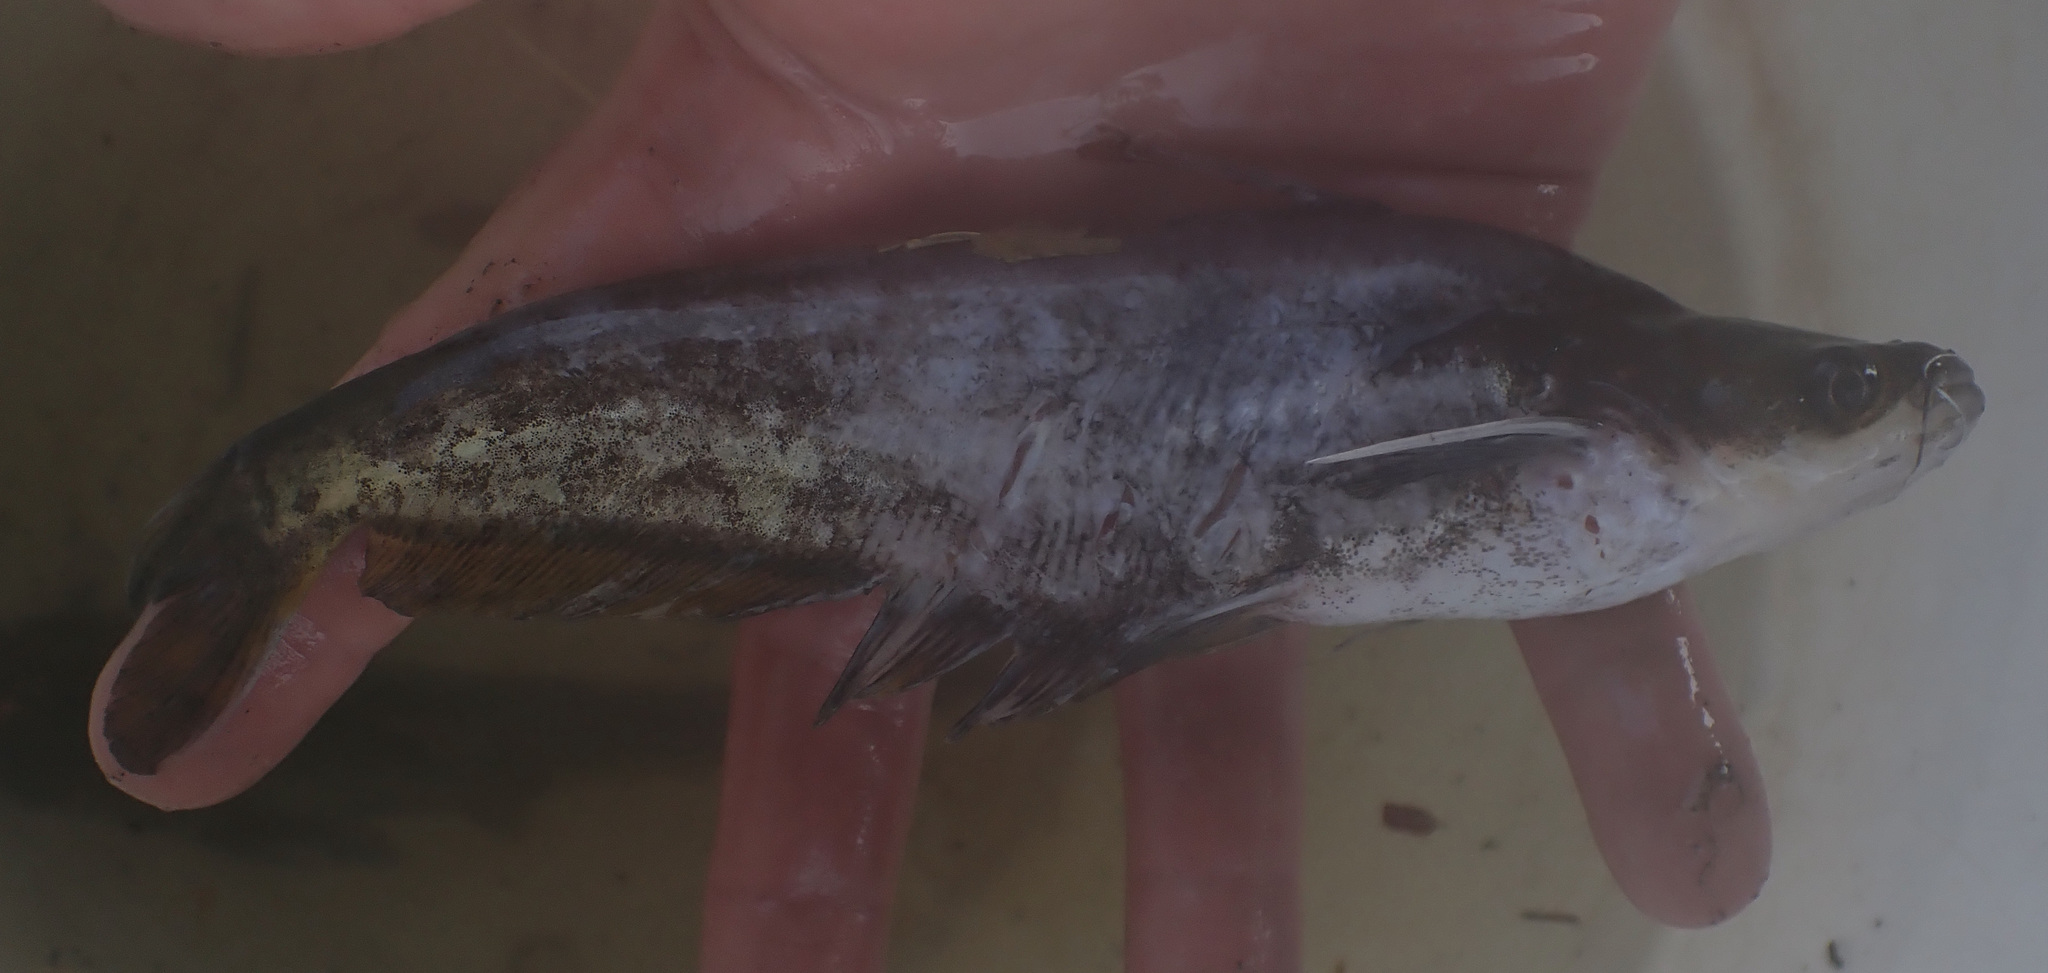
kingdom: Animalia
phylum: Chordata
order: Siluriformes
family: Schilbeidae
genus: Schilbe
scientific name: Schilbe intermedius
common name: Silver catfish
